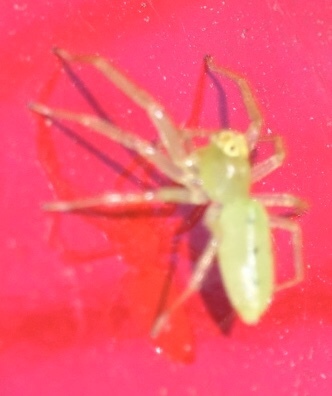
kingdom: Animalia
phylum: Arthropoda
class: Arachnida
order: Araneae
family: Salticidae
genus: Lyssomanes
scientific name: Lyssomanes viridis
